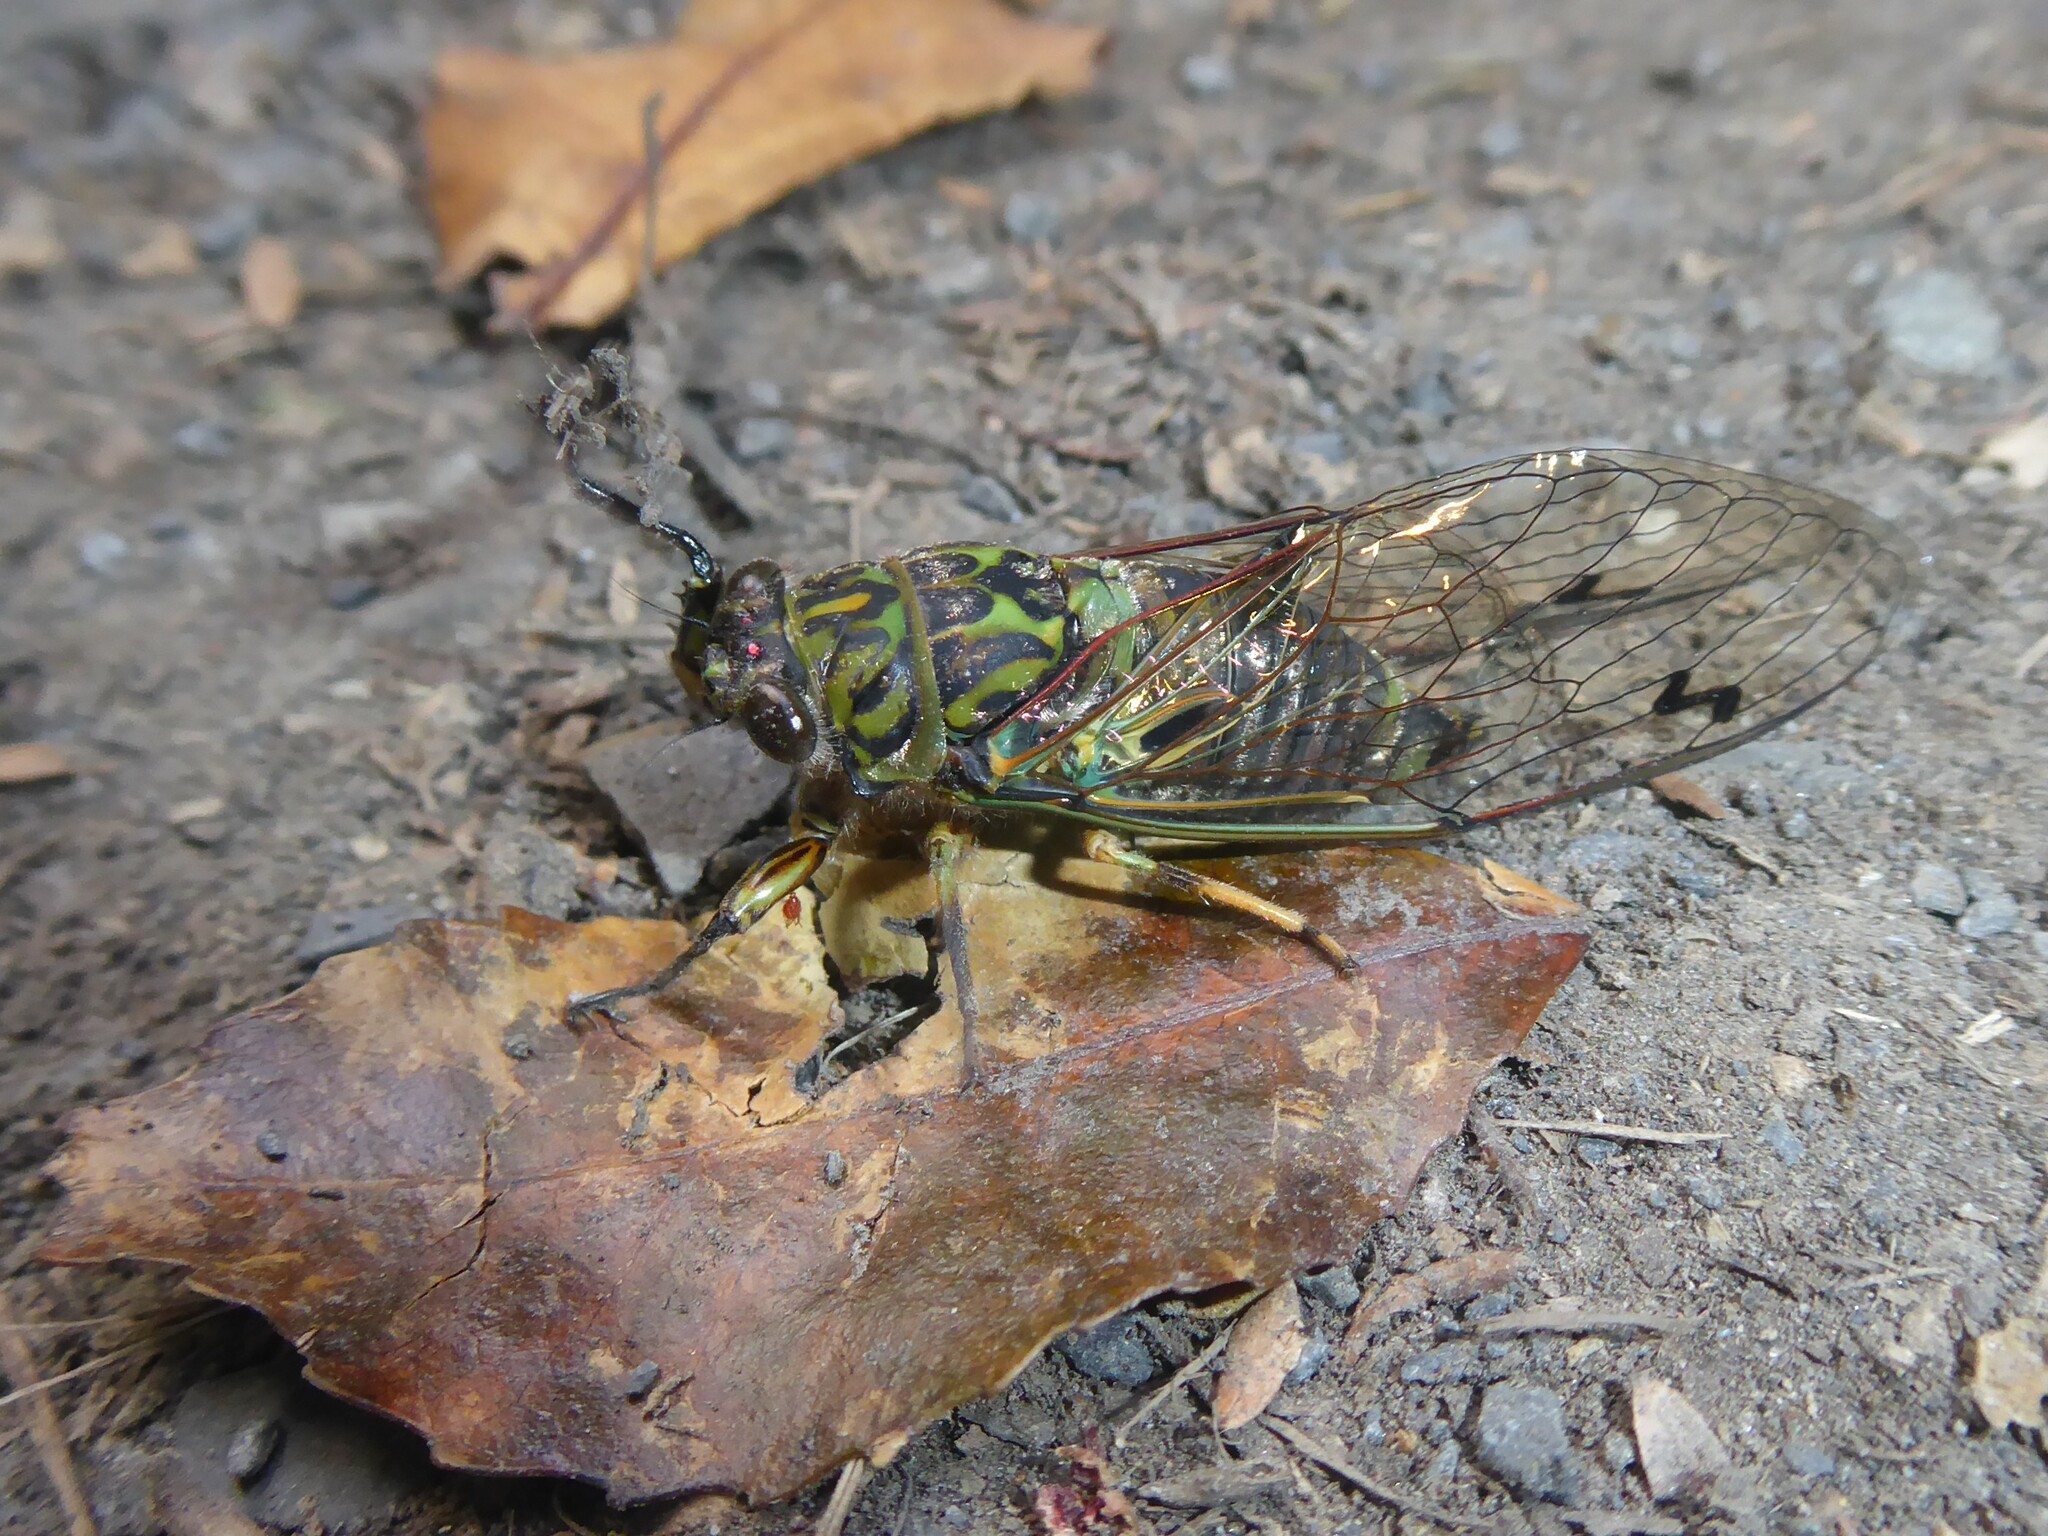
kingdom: Animalia
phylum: Arthropoda
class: Insecta
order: Hemiptera
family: Cicadidae
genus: Amphipsalta
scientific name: Amphipsalta zelandica
